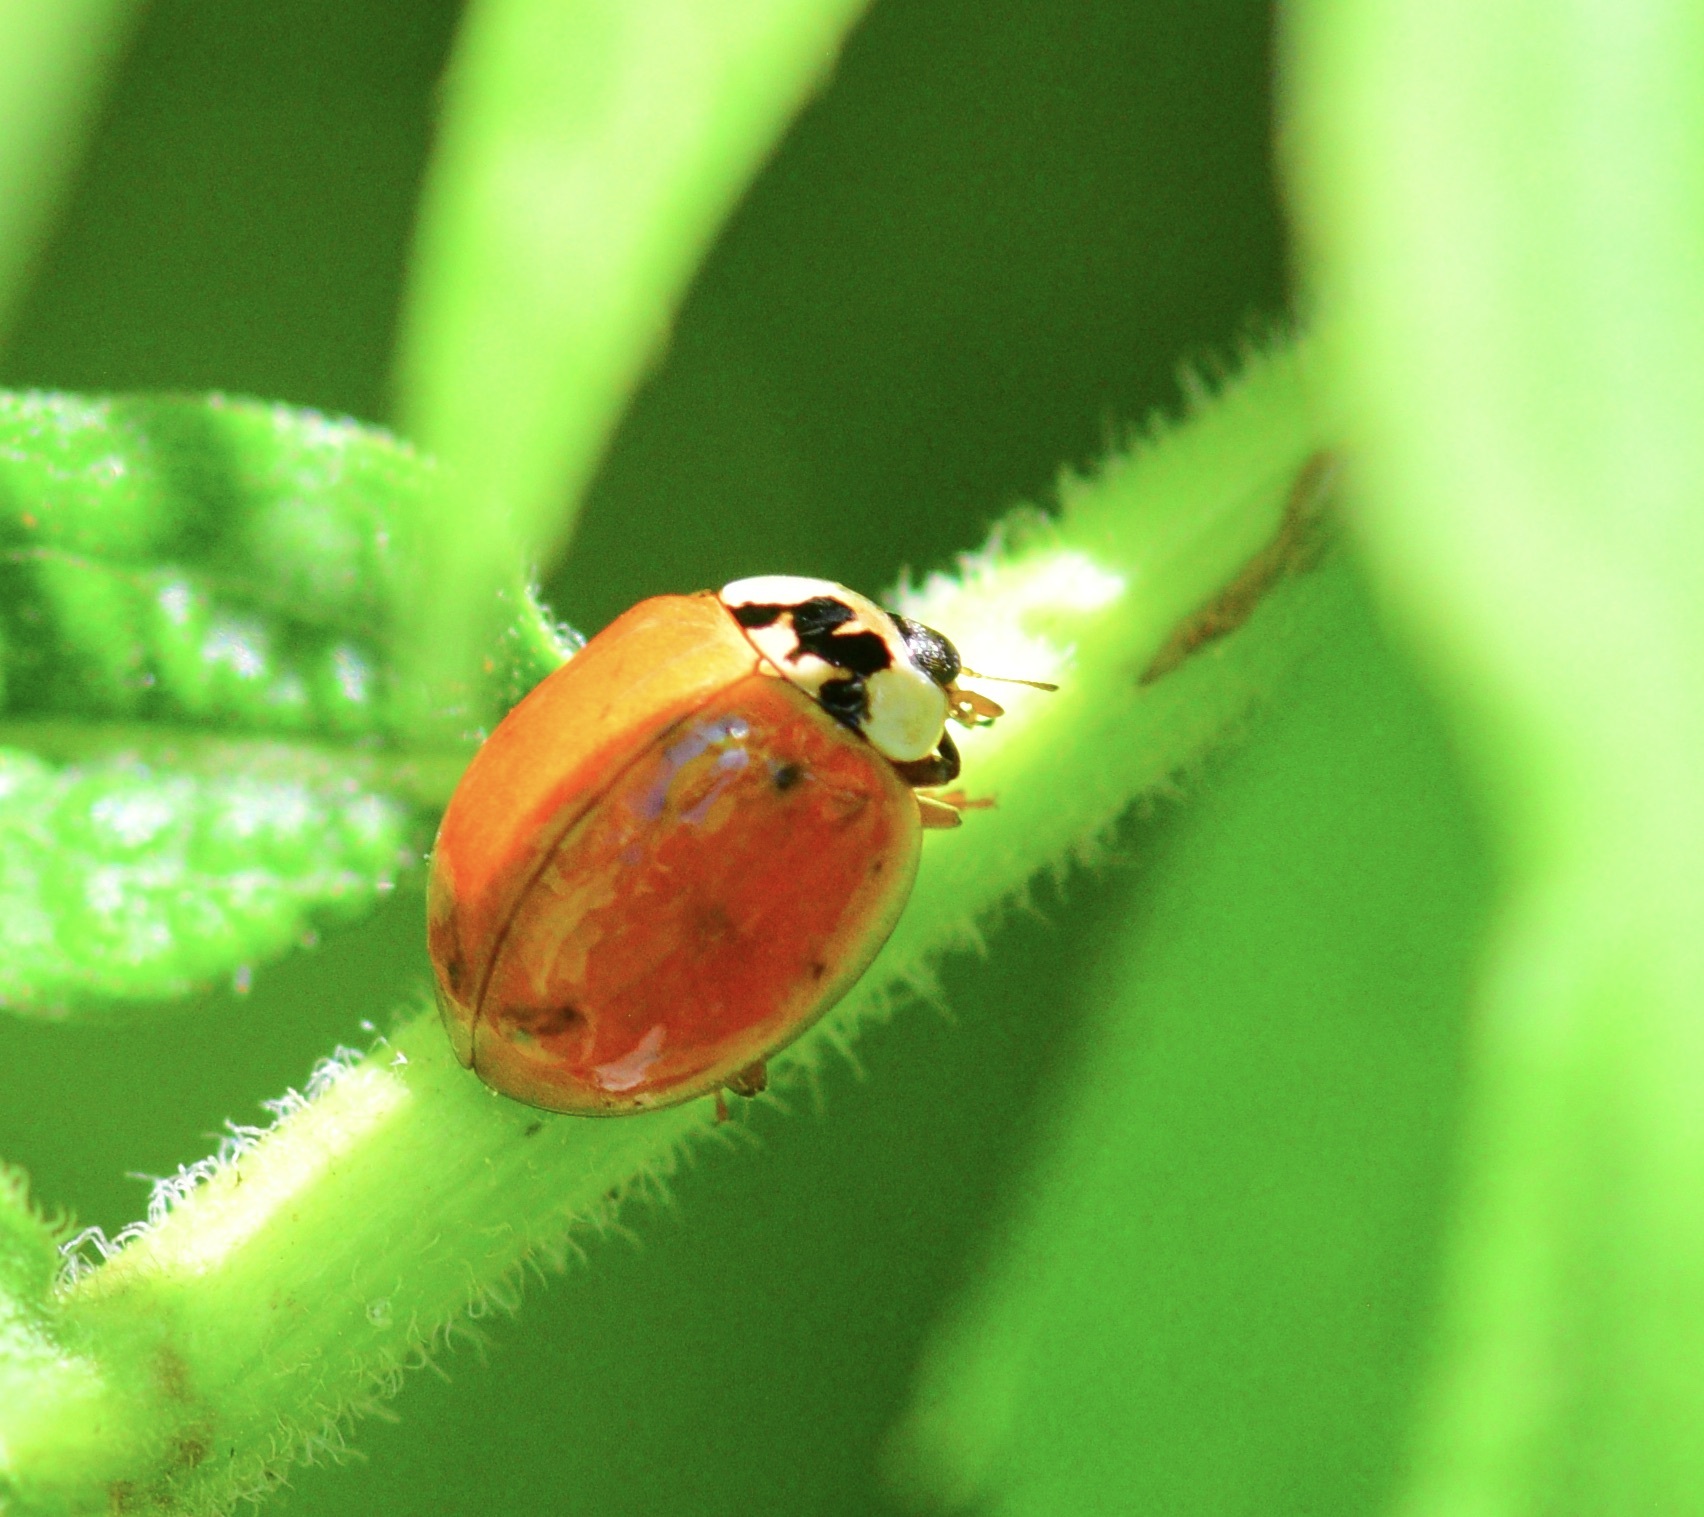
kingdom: Animalia
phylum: Arthropoda
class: Insecta
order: Coleoptera
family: Coccinellidae
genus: Harmonia
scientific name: Harmonia axyridis
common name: Harlequin ladybird
